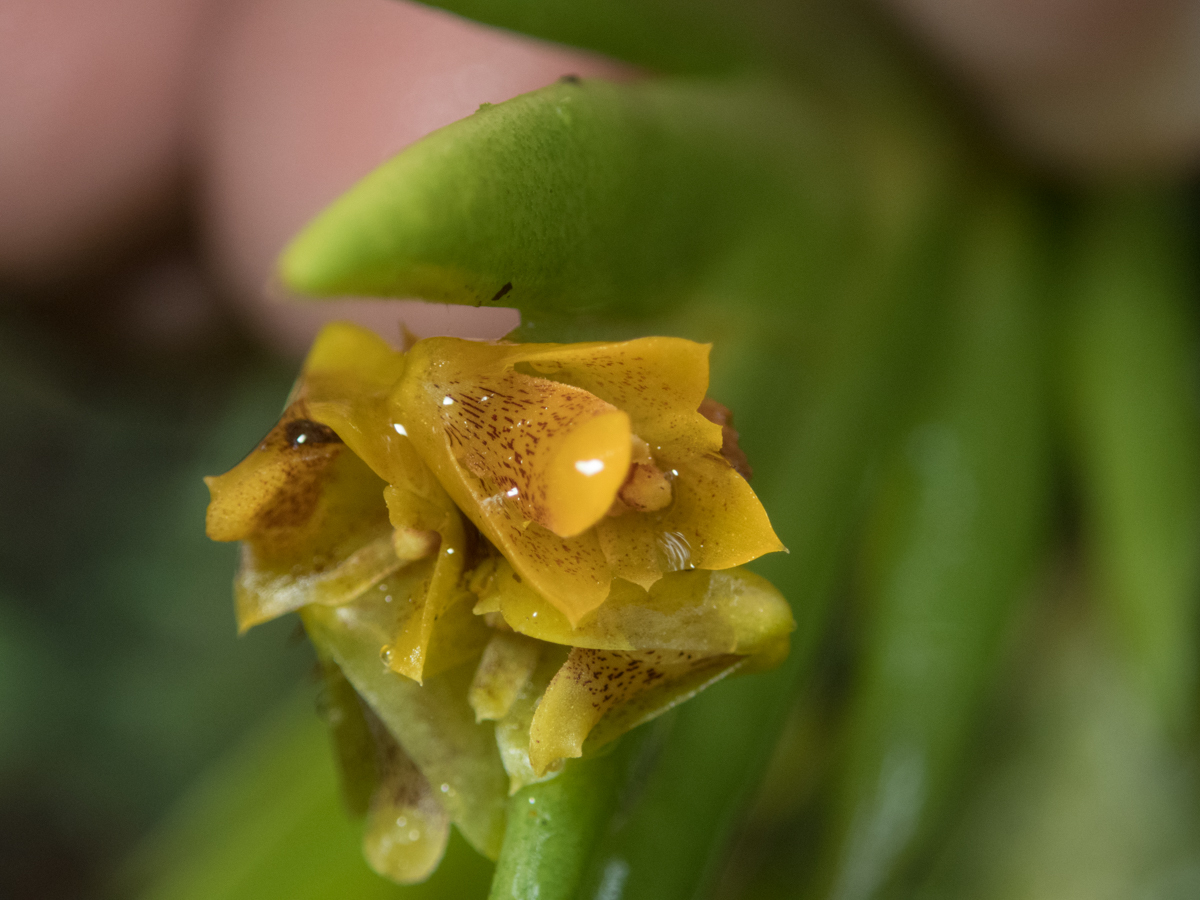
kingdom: Plantae
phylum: Tracheophyta
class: Liliopsida
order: Asparagales
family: Orchidaceae
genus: Oxystophyllum
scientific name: Oxystophyllum carnosum
